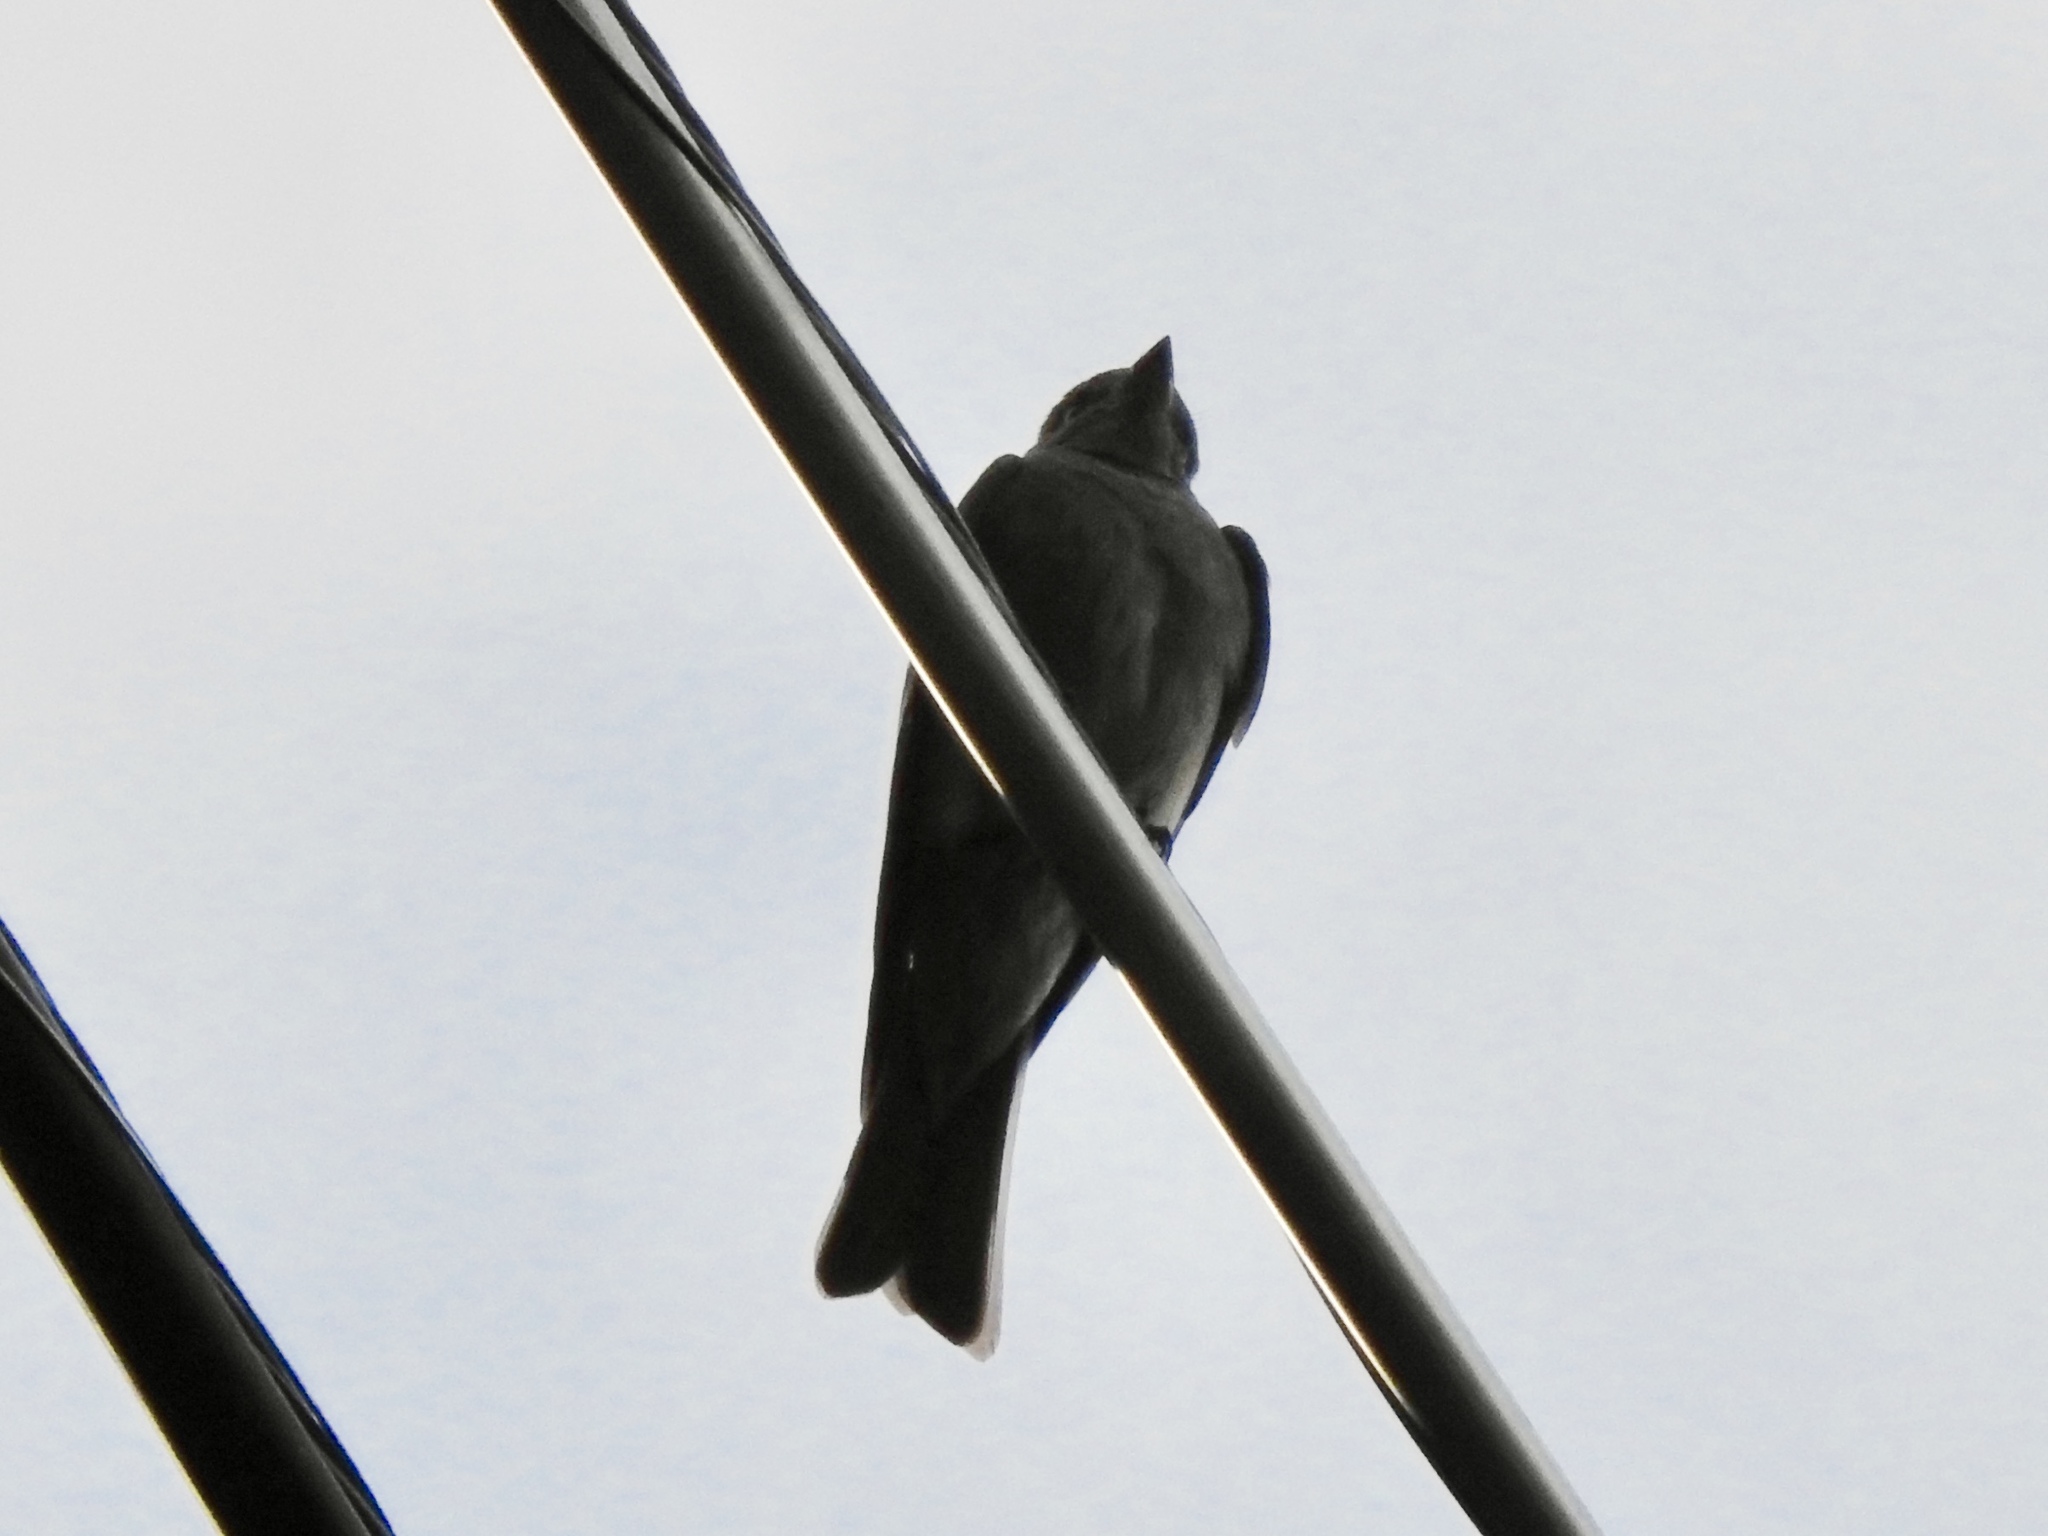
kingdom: Animalia
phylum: Chordata
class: Aves
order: Passeriformes
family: Tyrannidae
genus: Contopus
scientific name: Contopus sordidulus
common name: Western wood-pewee
